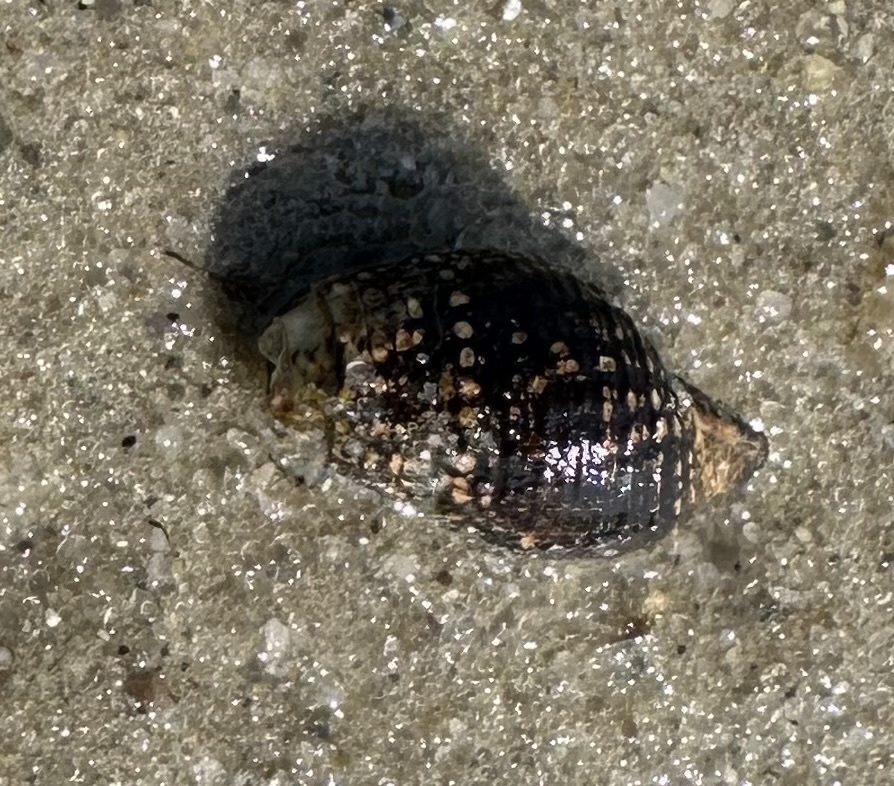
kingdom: Animalia
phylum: Mollusca
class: Gastropoda
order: Neogastropoda
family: Nassariidae
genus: Ilyanassa
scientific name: Ilyanassa obsoleta
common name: Eastern mudsnail
